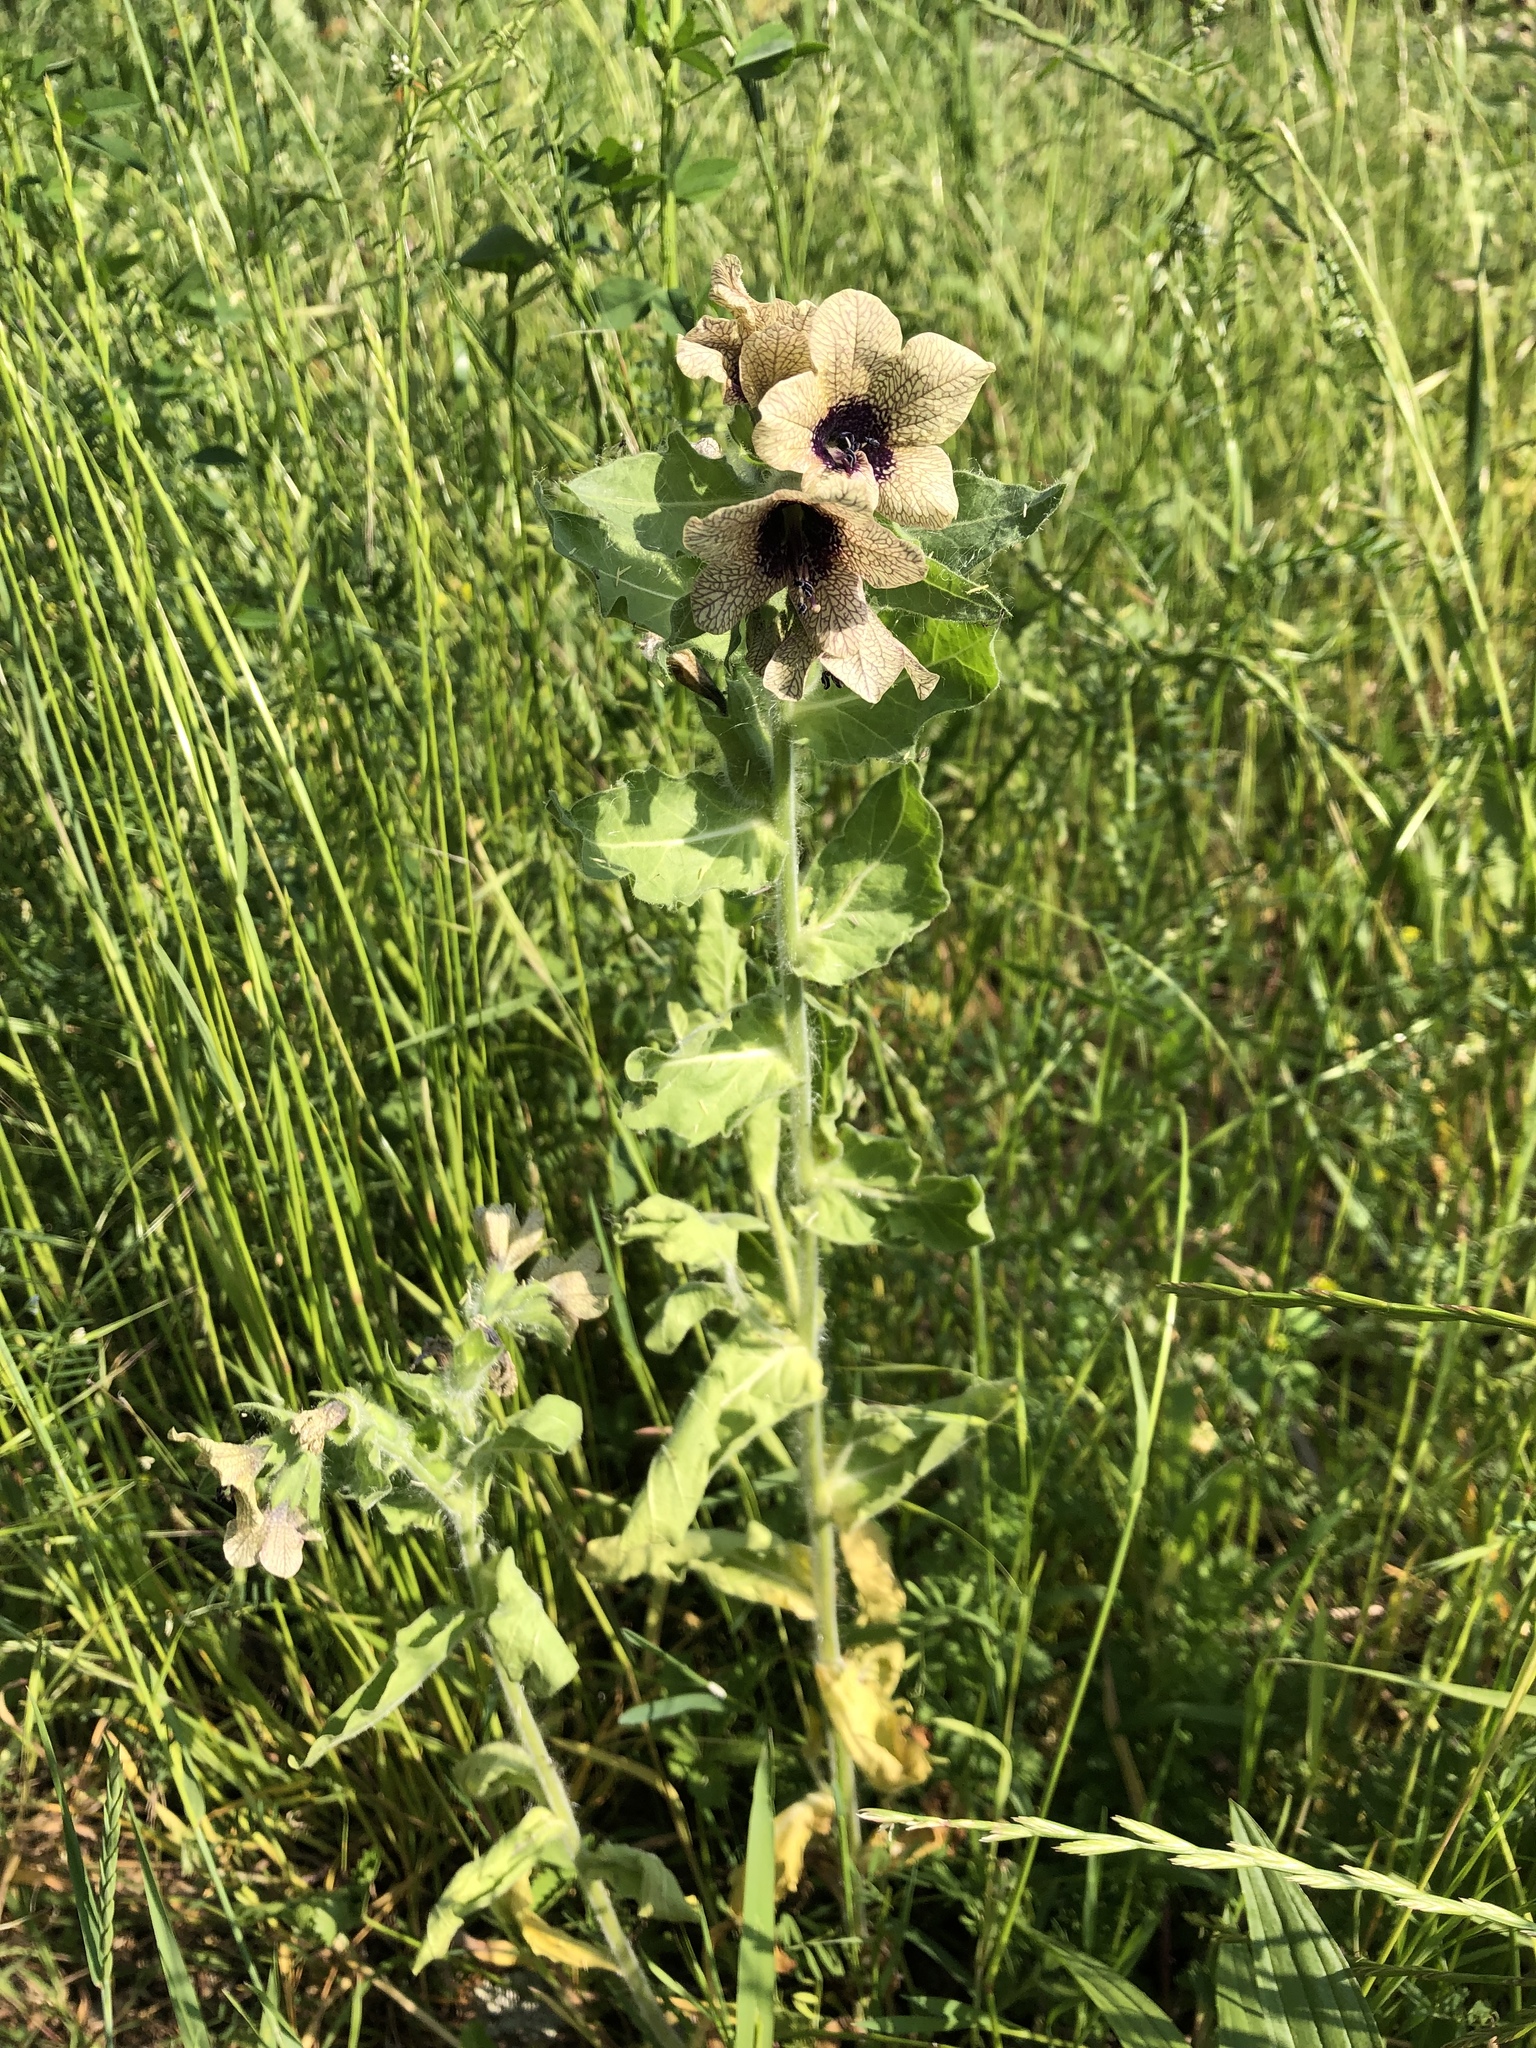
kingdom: Plantae
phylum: Tracheophyta
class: Magnoliopsida
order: Solanales
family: Solanaceae
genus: Hyoscyamus
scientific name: Hyoscyamus niger
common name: Henbane
